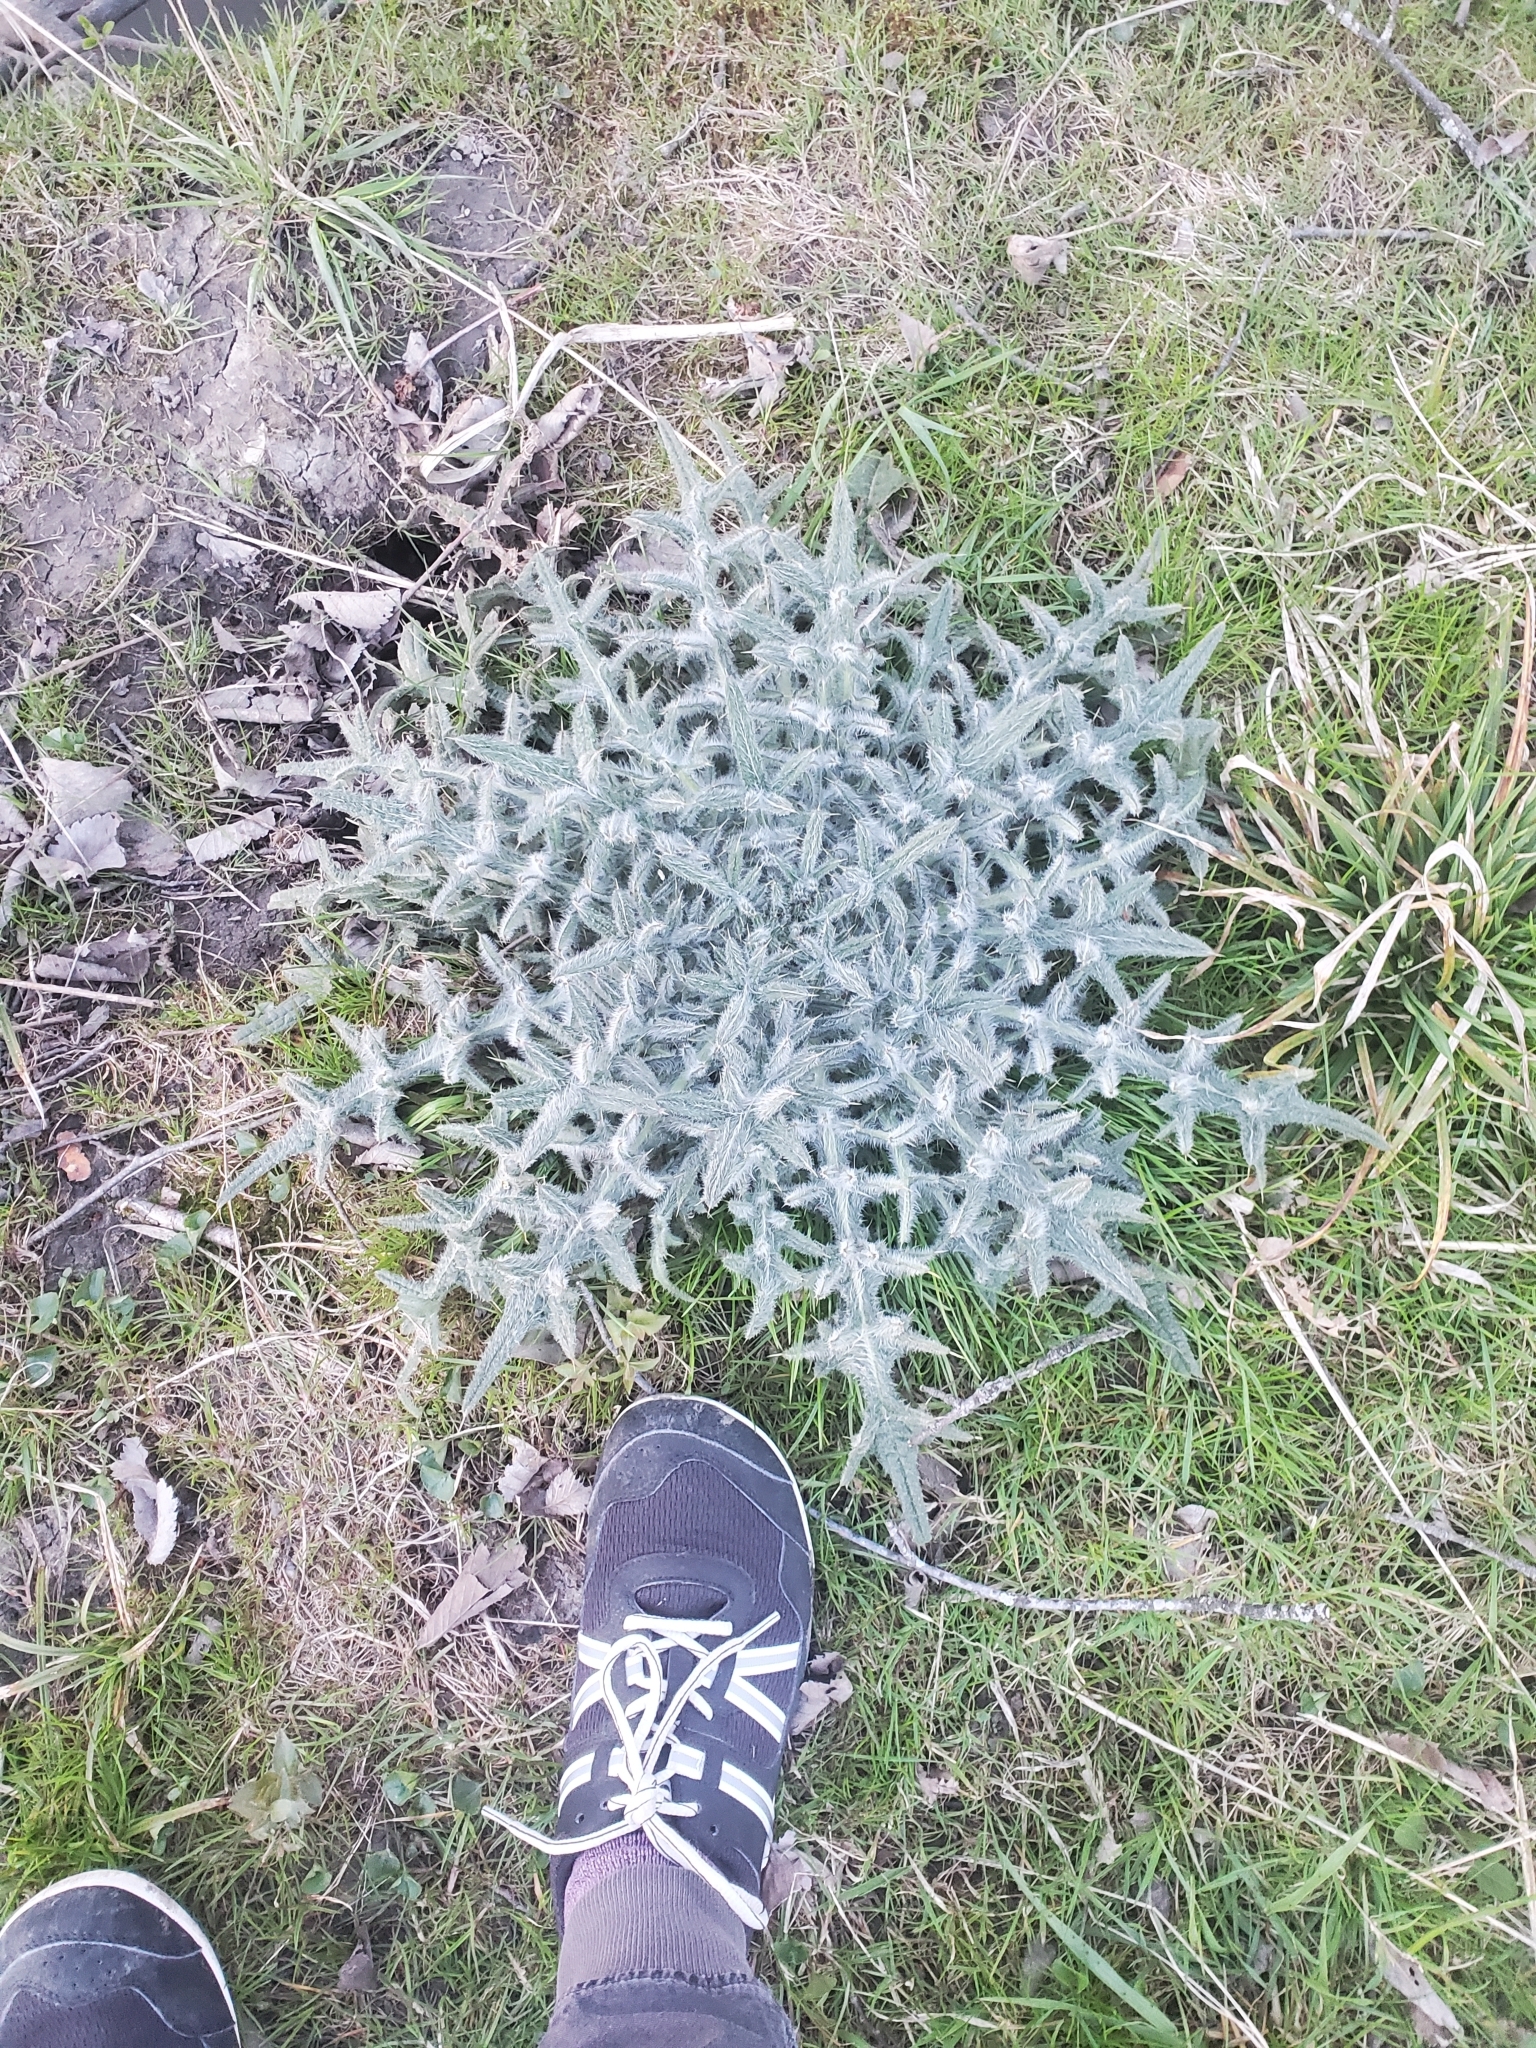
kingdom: Plantae
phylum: Tracheophyta
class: Magnoliopsida
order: Asterales
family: Asteraceae
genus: Cirsium
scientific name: Cirsium vulgare
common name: Bull thistle
